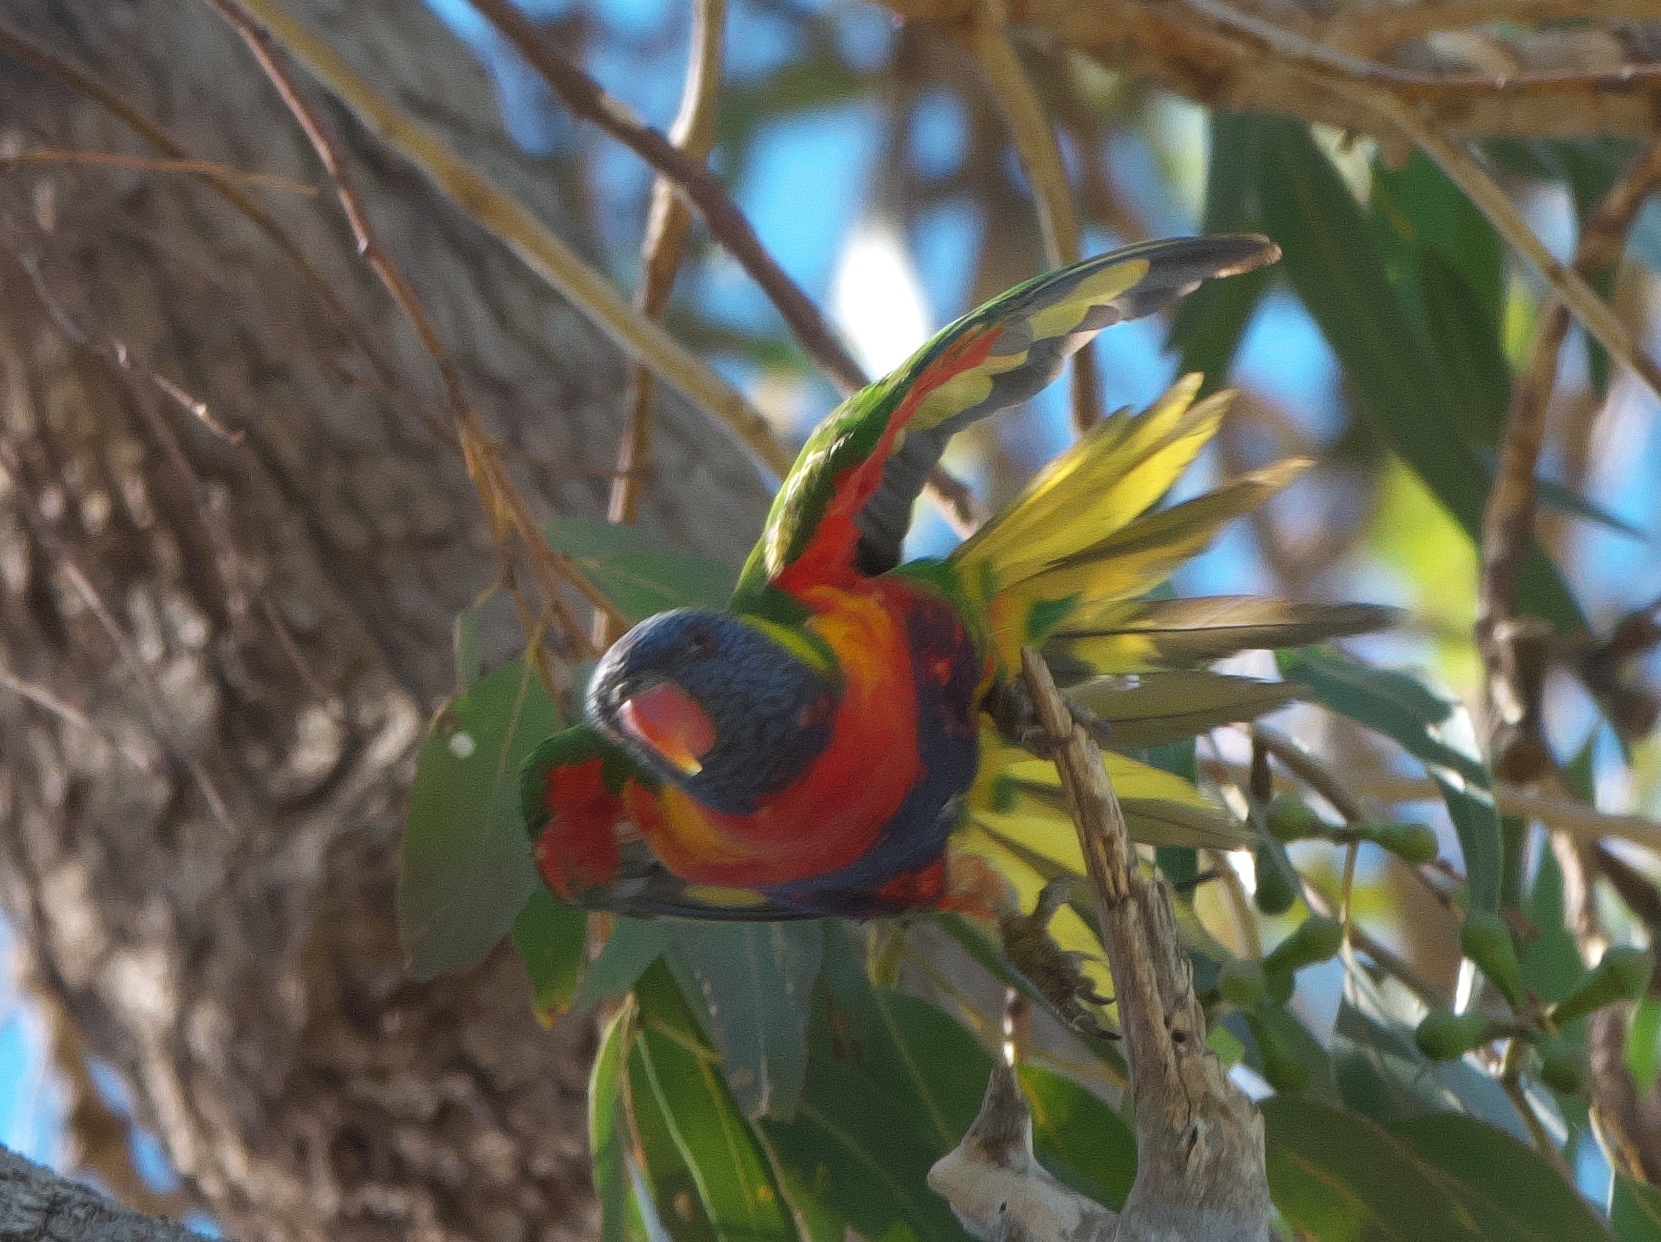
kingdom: Animalia
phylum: Chordata
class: Aves
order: Psittaciformes
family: Psittacidae
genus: Trichoglossus
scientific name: Trichoglossus haematodus
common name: Coconut lorikeet
